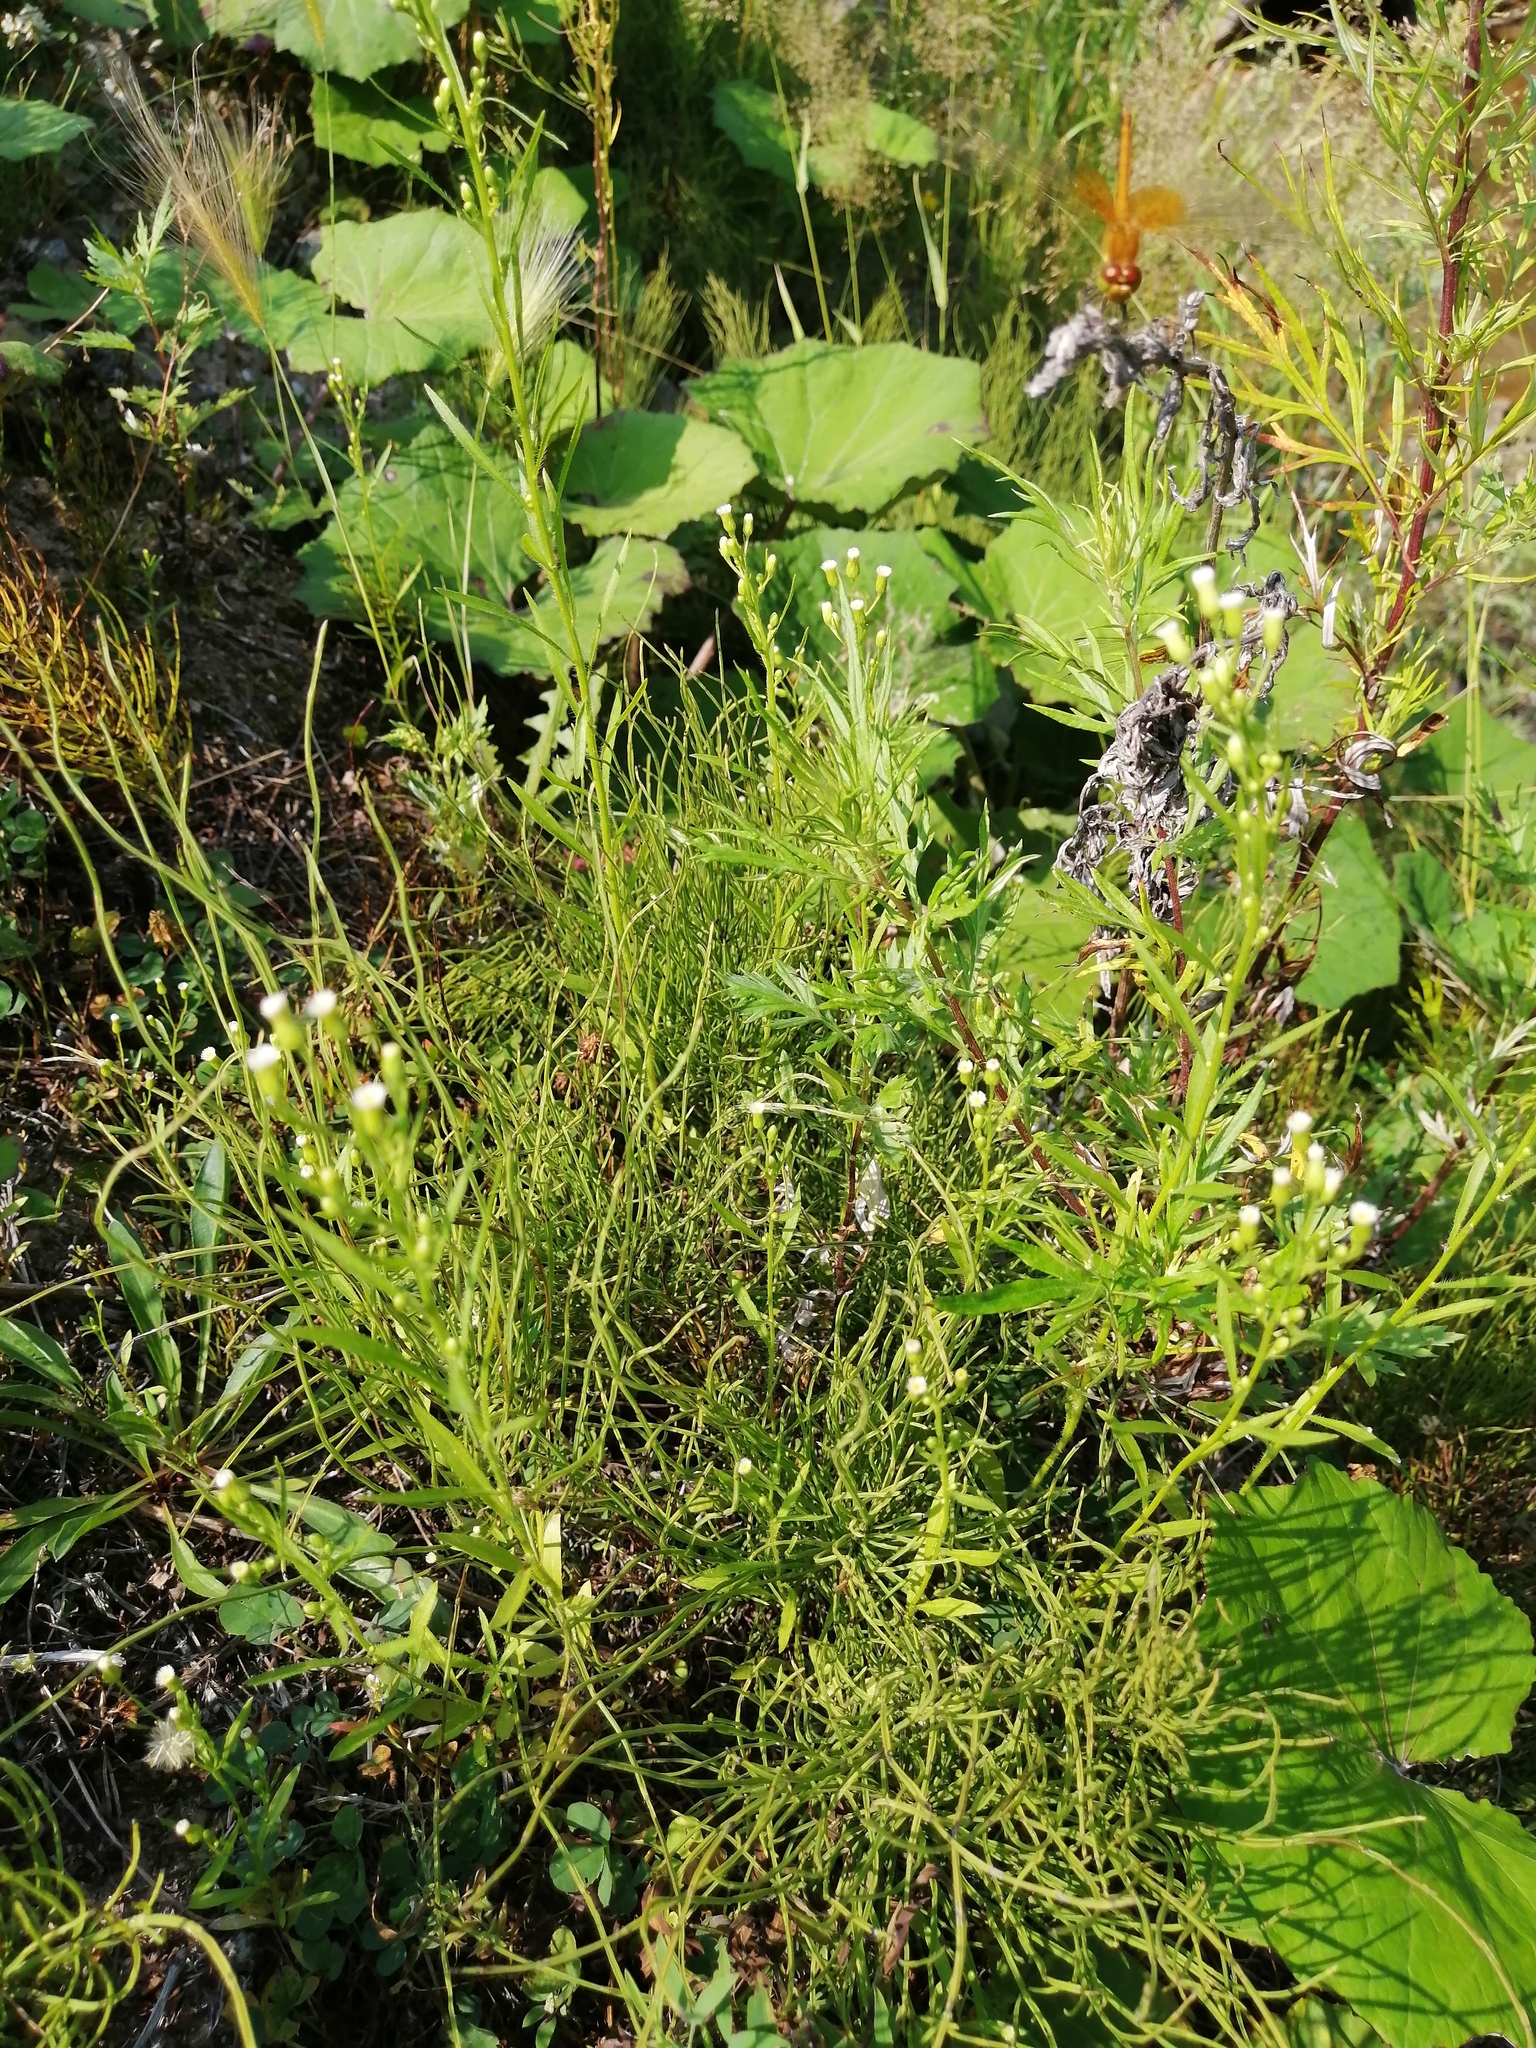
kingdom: Plantae
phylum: Tracheophyta
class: Magnoliopsida
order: Asterales
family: Asteraceae
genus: Erigeron
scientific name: Erigeron canadensis
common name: Canadian fleabane
